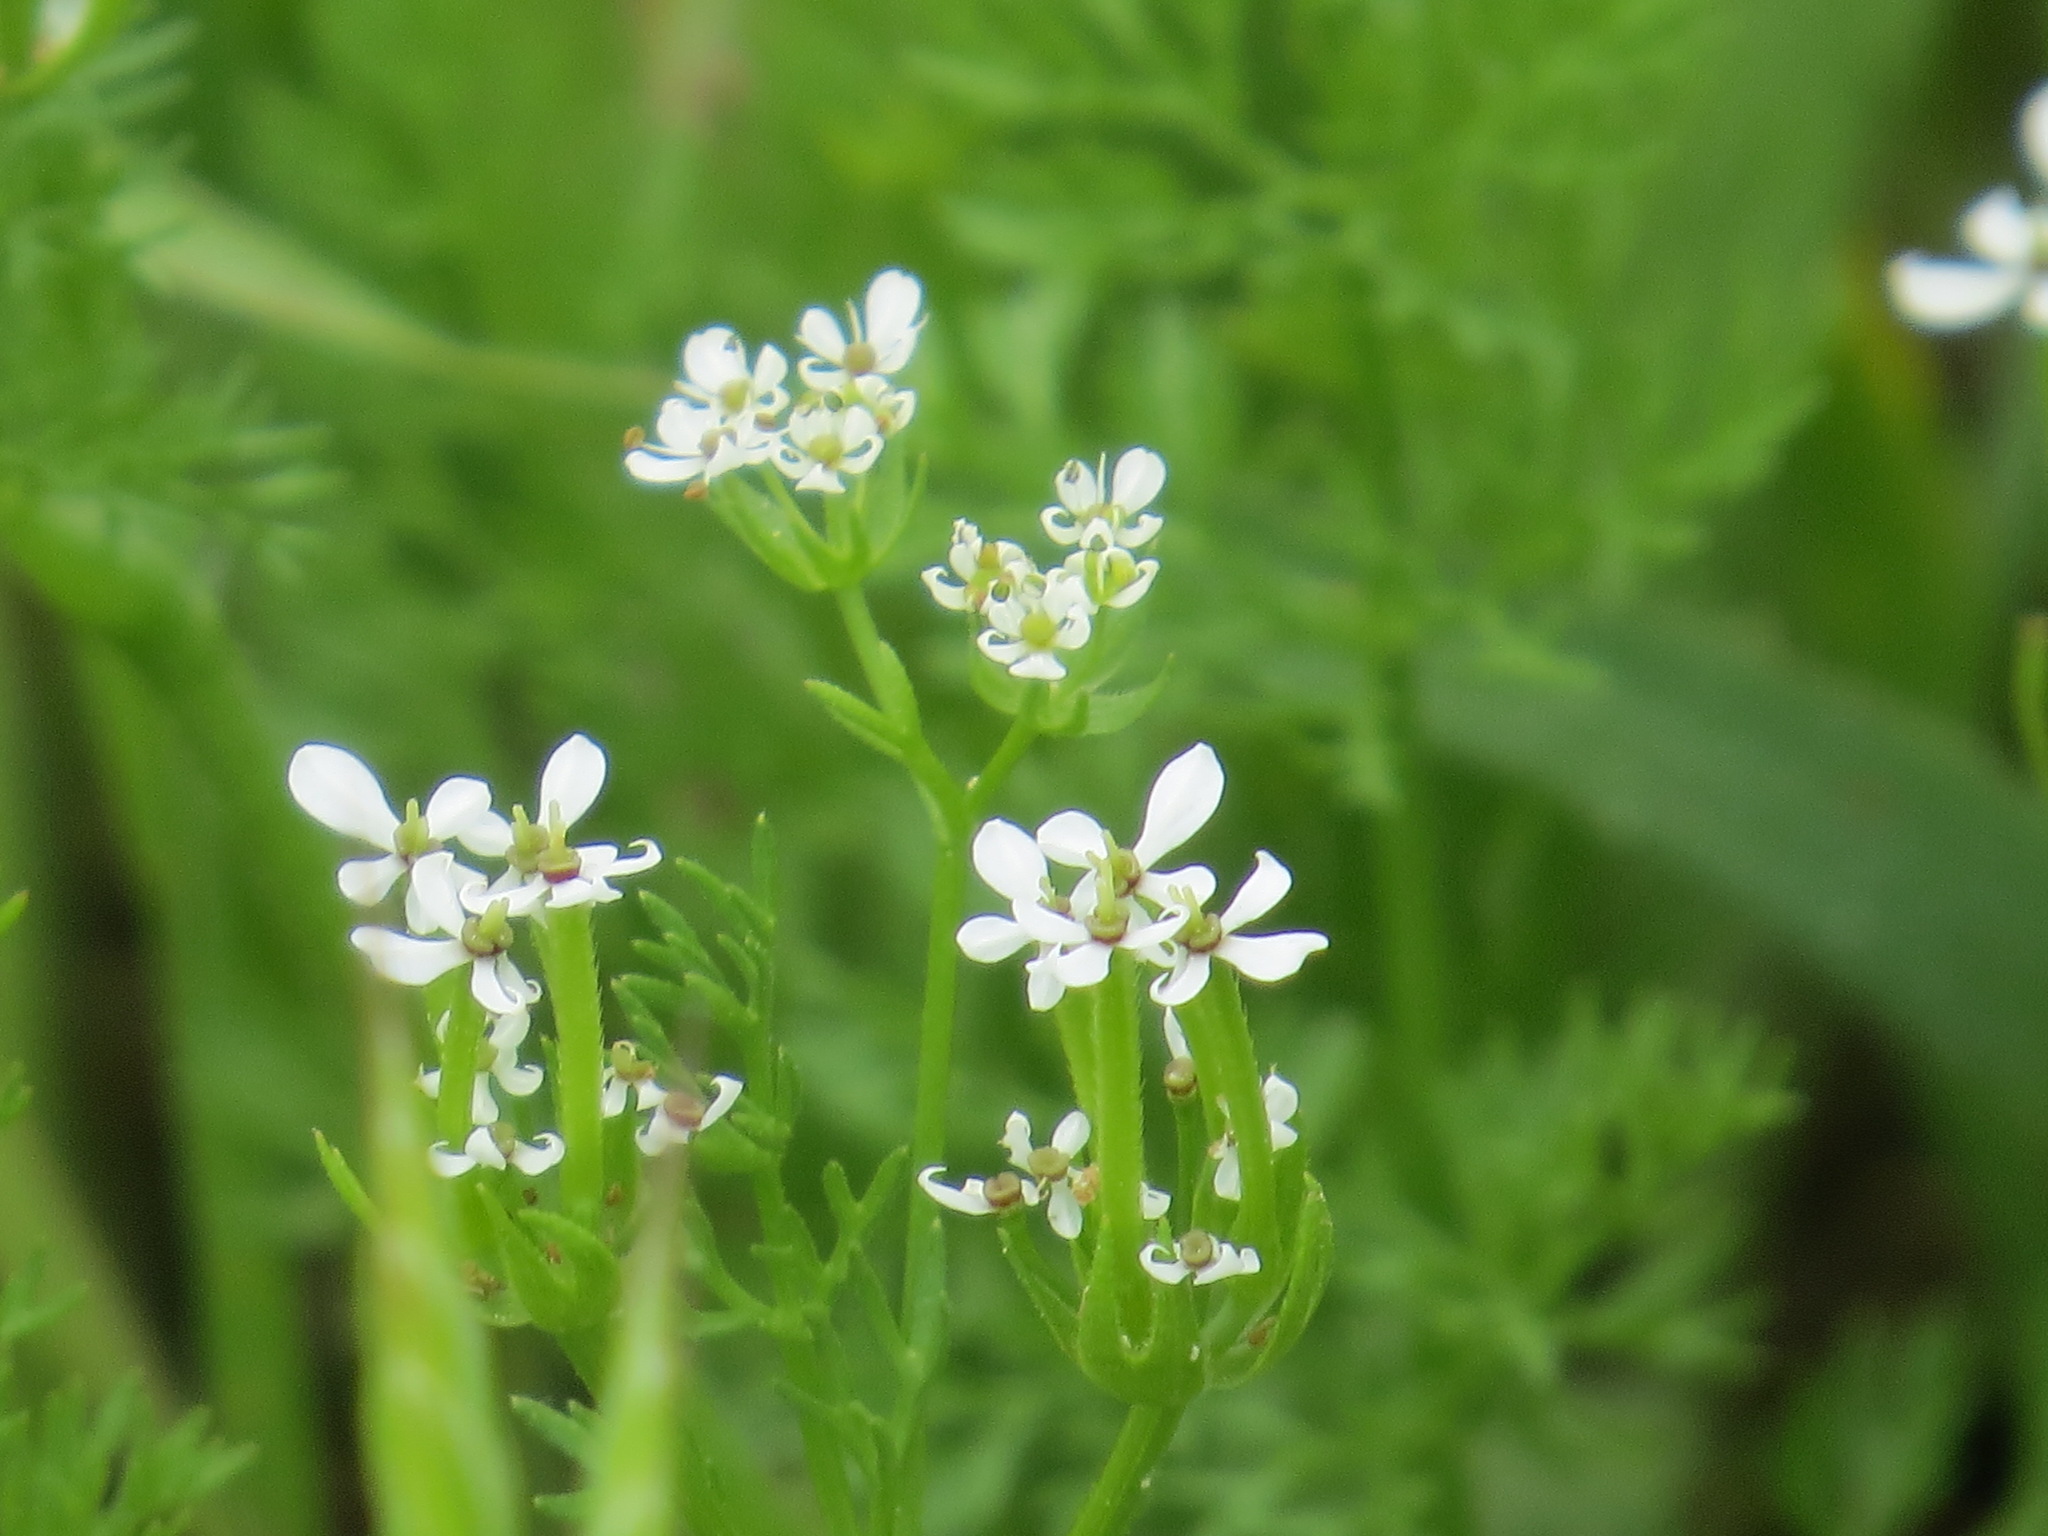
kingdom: Plantae
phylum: Tracheophyta
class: Magnoliopsida
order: Apiales
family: Apiaceae
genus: Scandix
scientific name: Scandix pecten-veneris
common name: Shepherd's-needle
